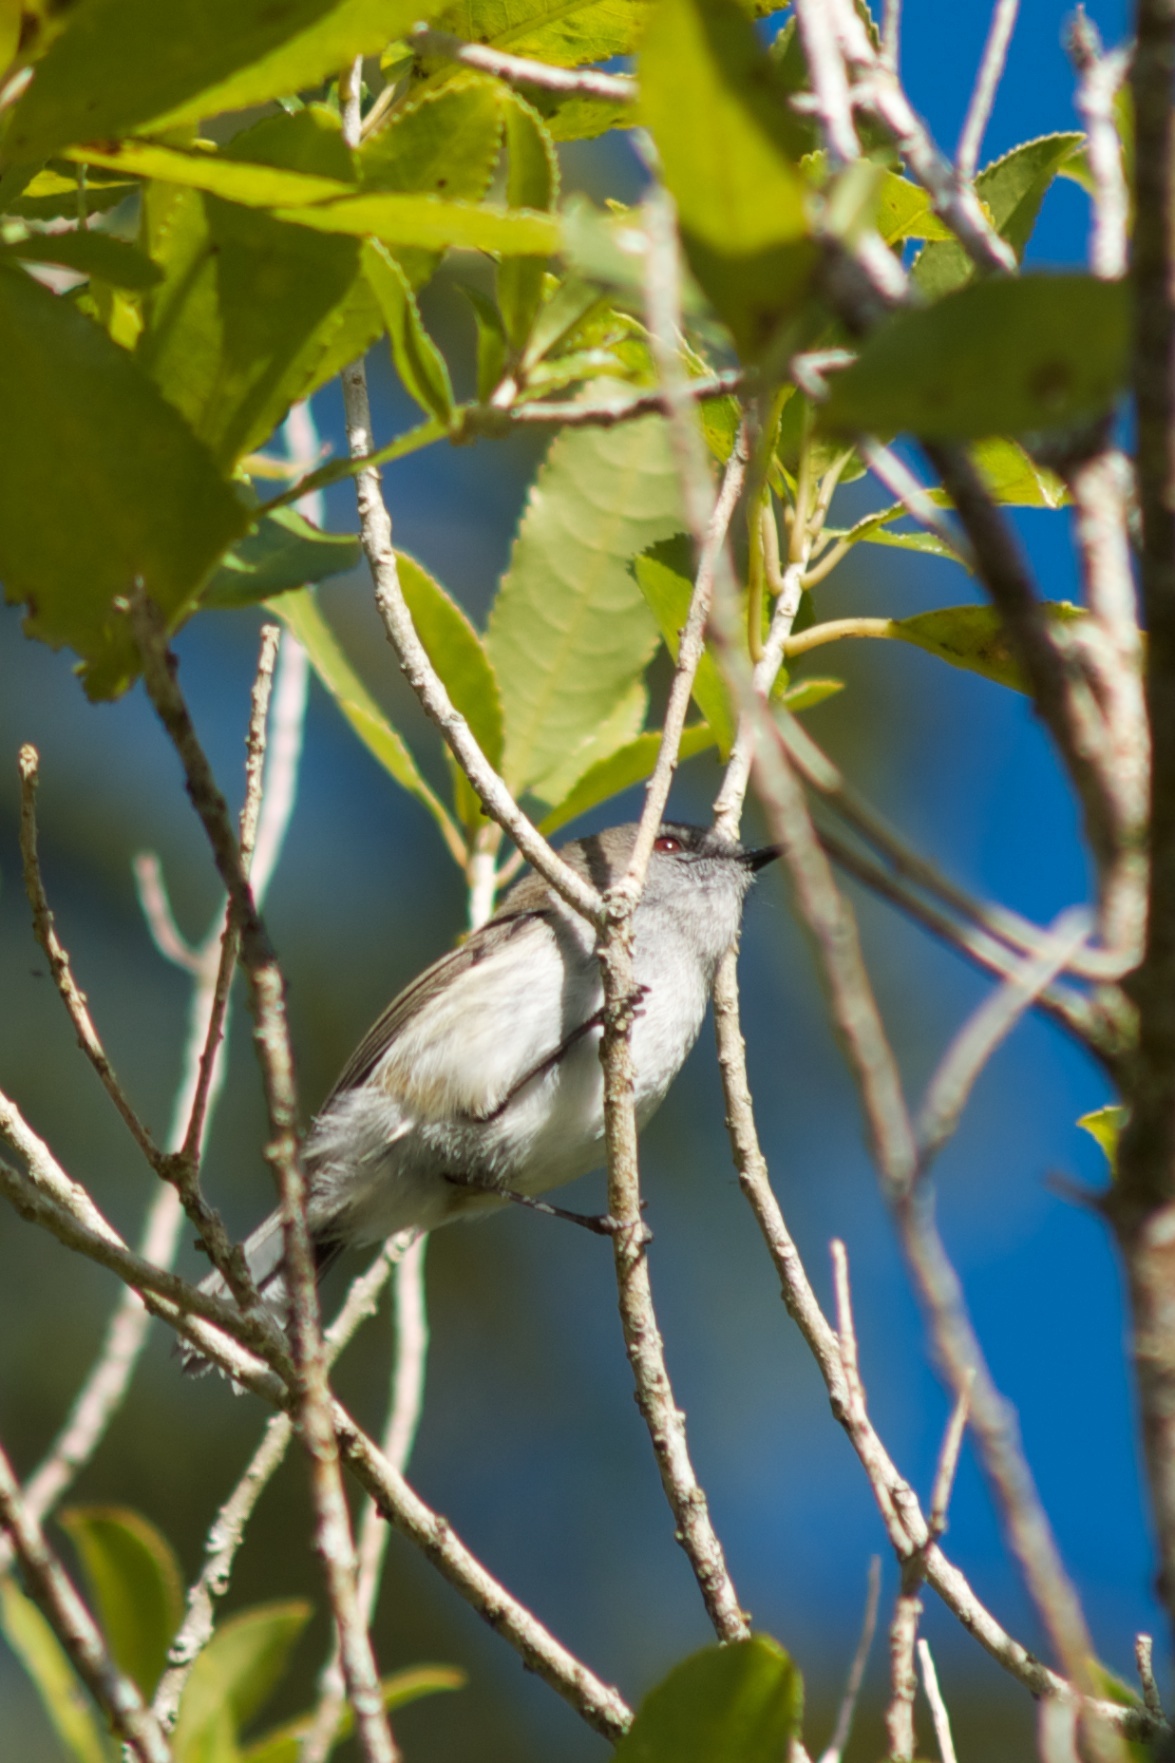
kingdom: Animalia
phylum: Chordata
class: Aves
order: Passeriformes
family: Acanthizidae
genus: Gerygone
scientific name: Gerygone igata
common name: Grey gerygone
